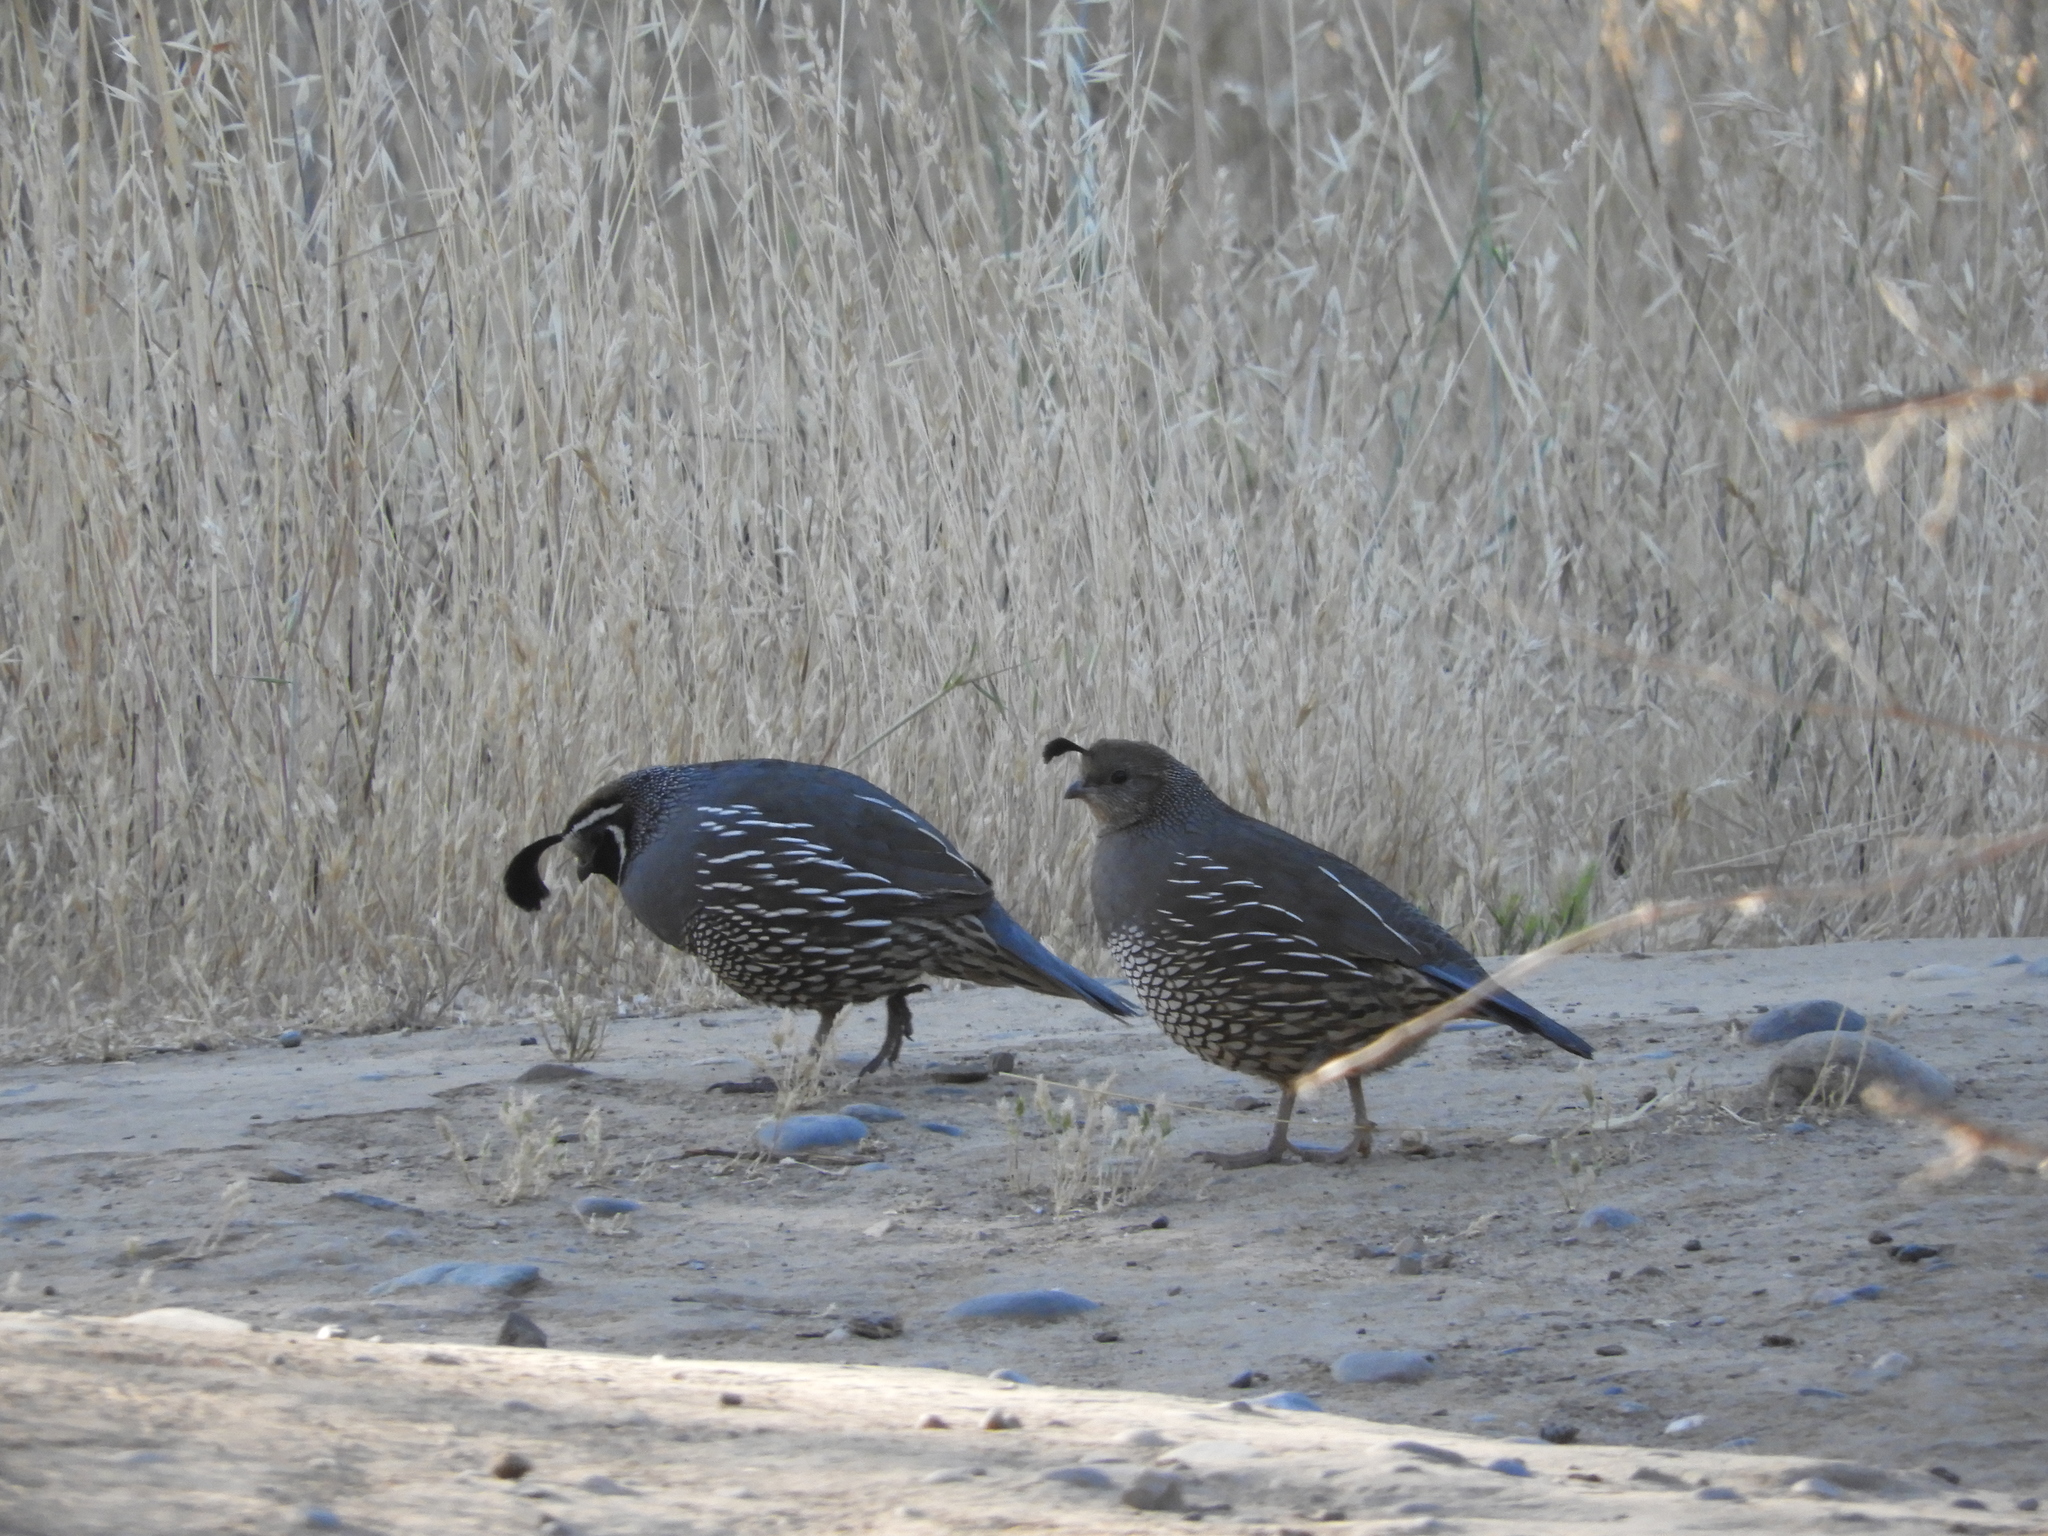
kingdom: Animalia
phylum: Chordata
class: Aves
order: Galliformes
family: Odontophoridae
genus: Callipepla
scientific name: Callipepla californica
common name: California quail
